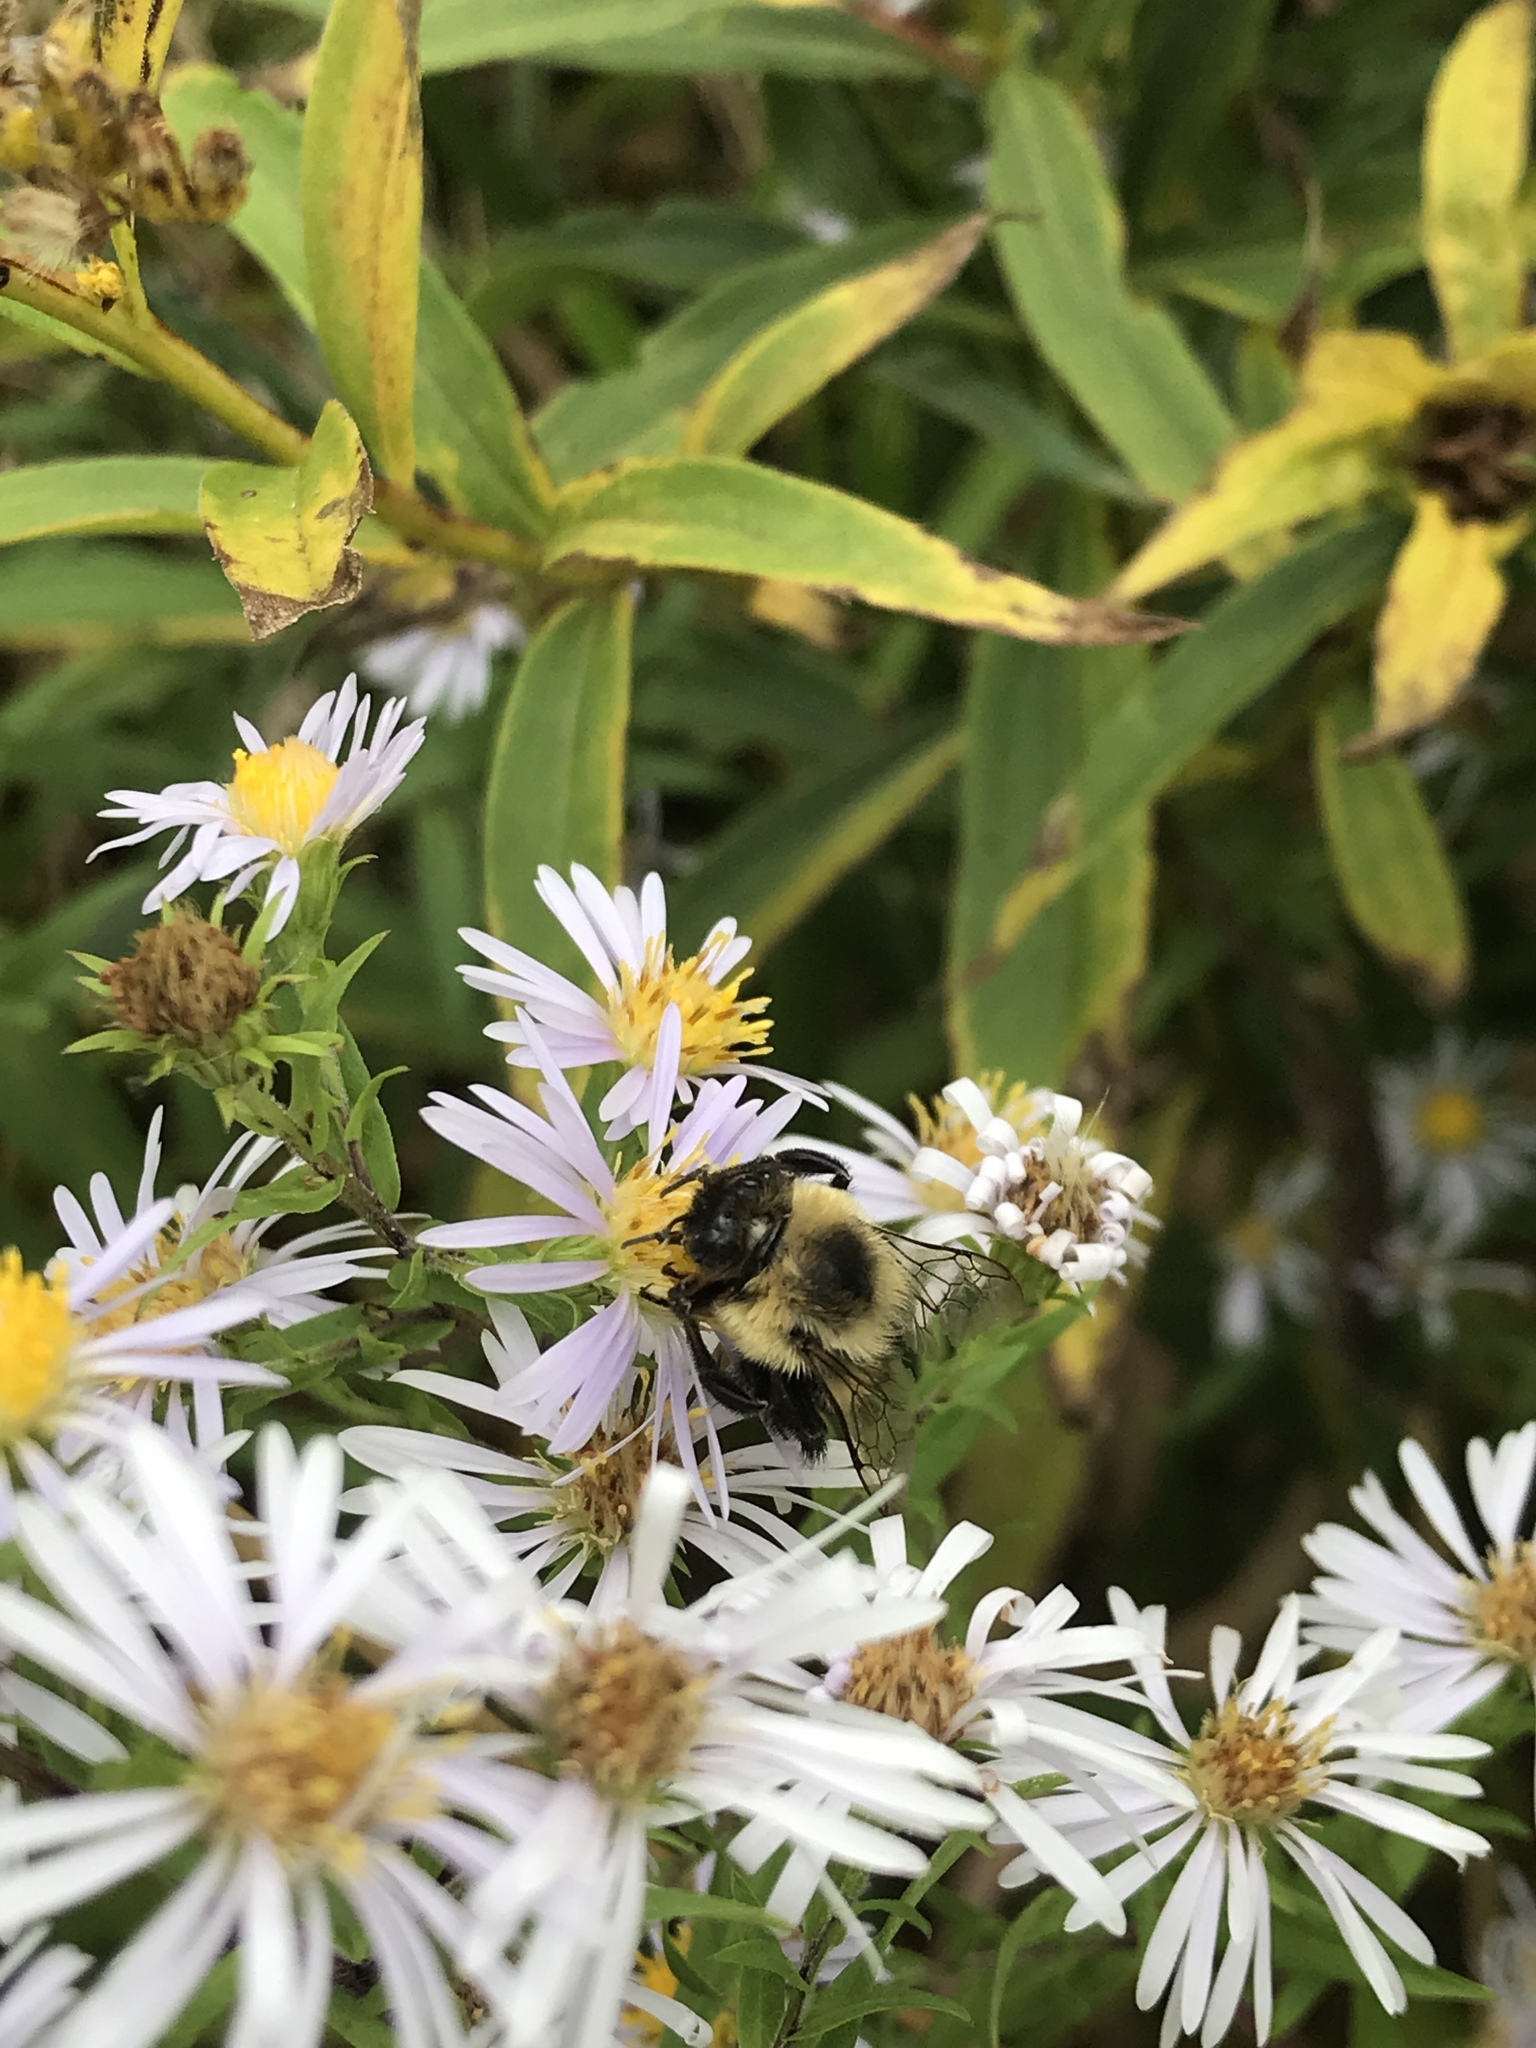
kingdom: Animalia
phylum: Arthropoda
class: Insecta
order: Hymenoptera
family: Apidae
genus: Bombus
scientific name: Bombus impatiens
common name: Common eastern bumble bee
